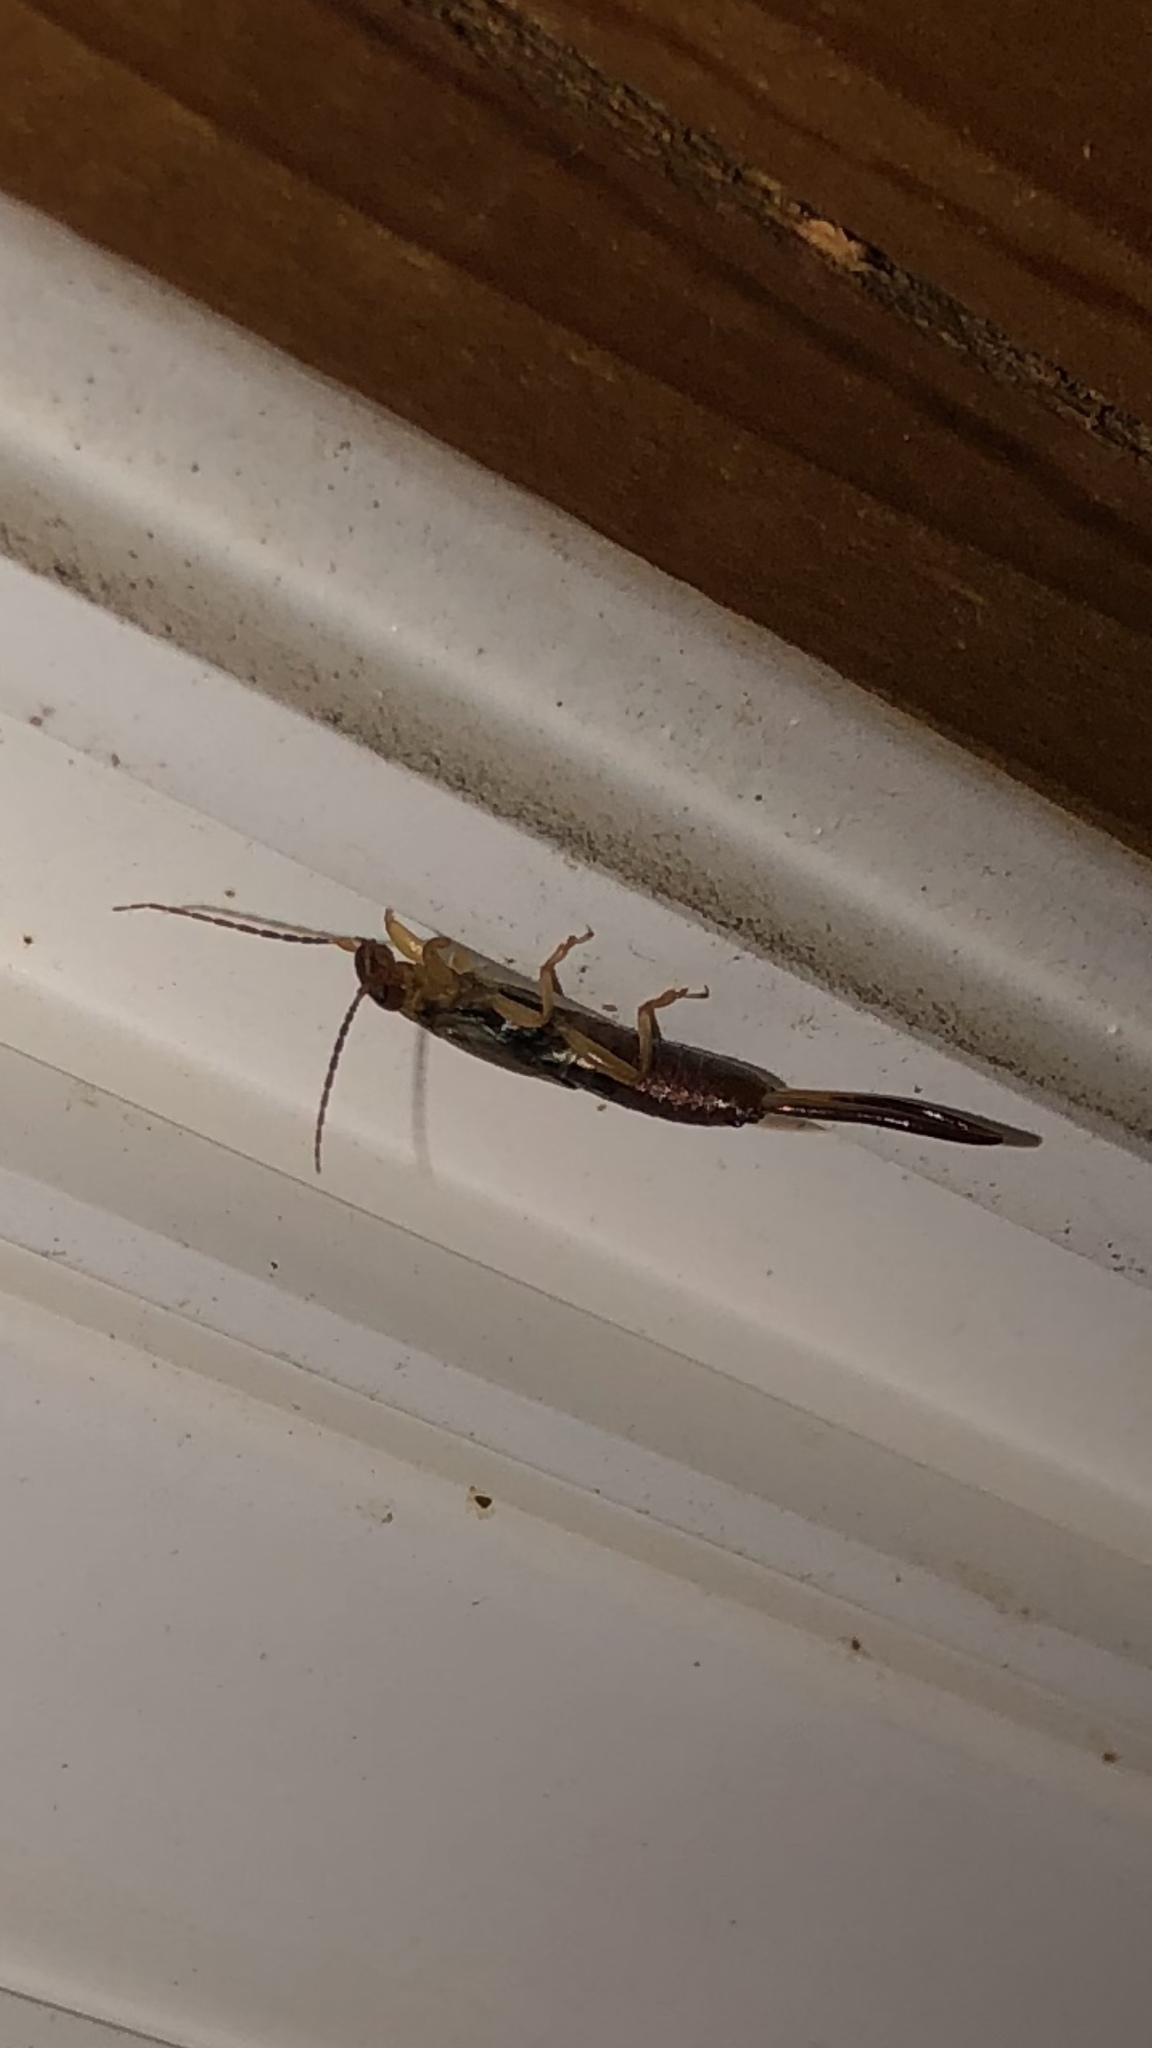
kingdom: Animalia
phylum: Arthropoda
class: Insecta
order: Dermaptera
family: Forficulidae
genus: Forficula
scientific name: Forficula
